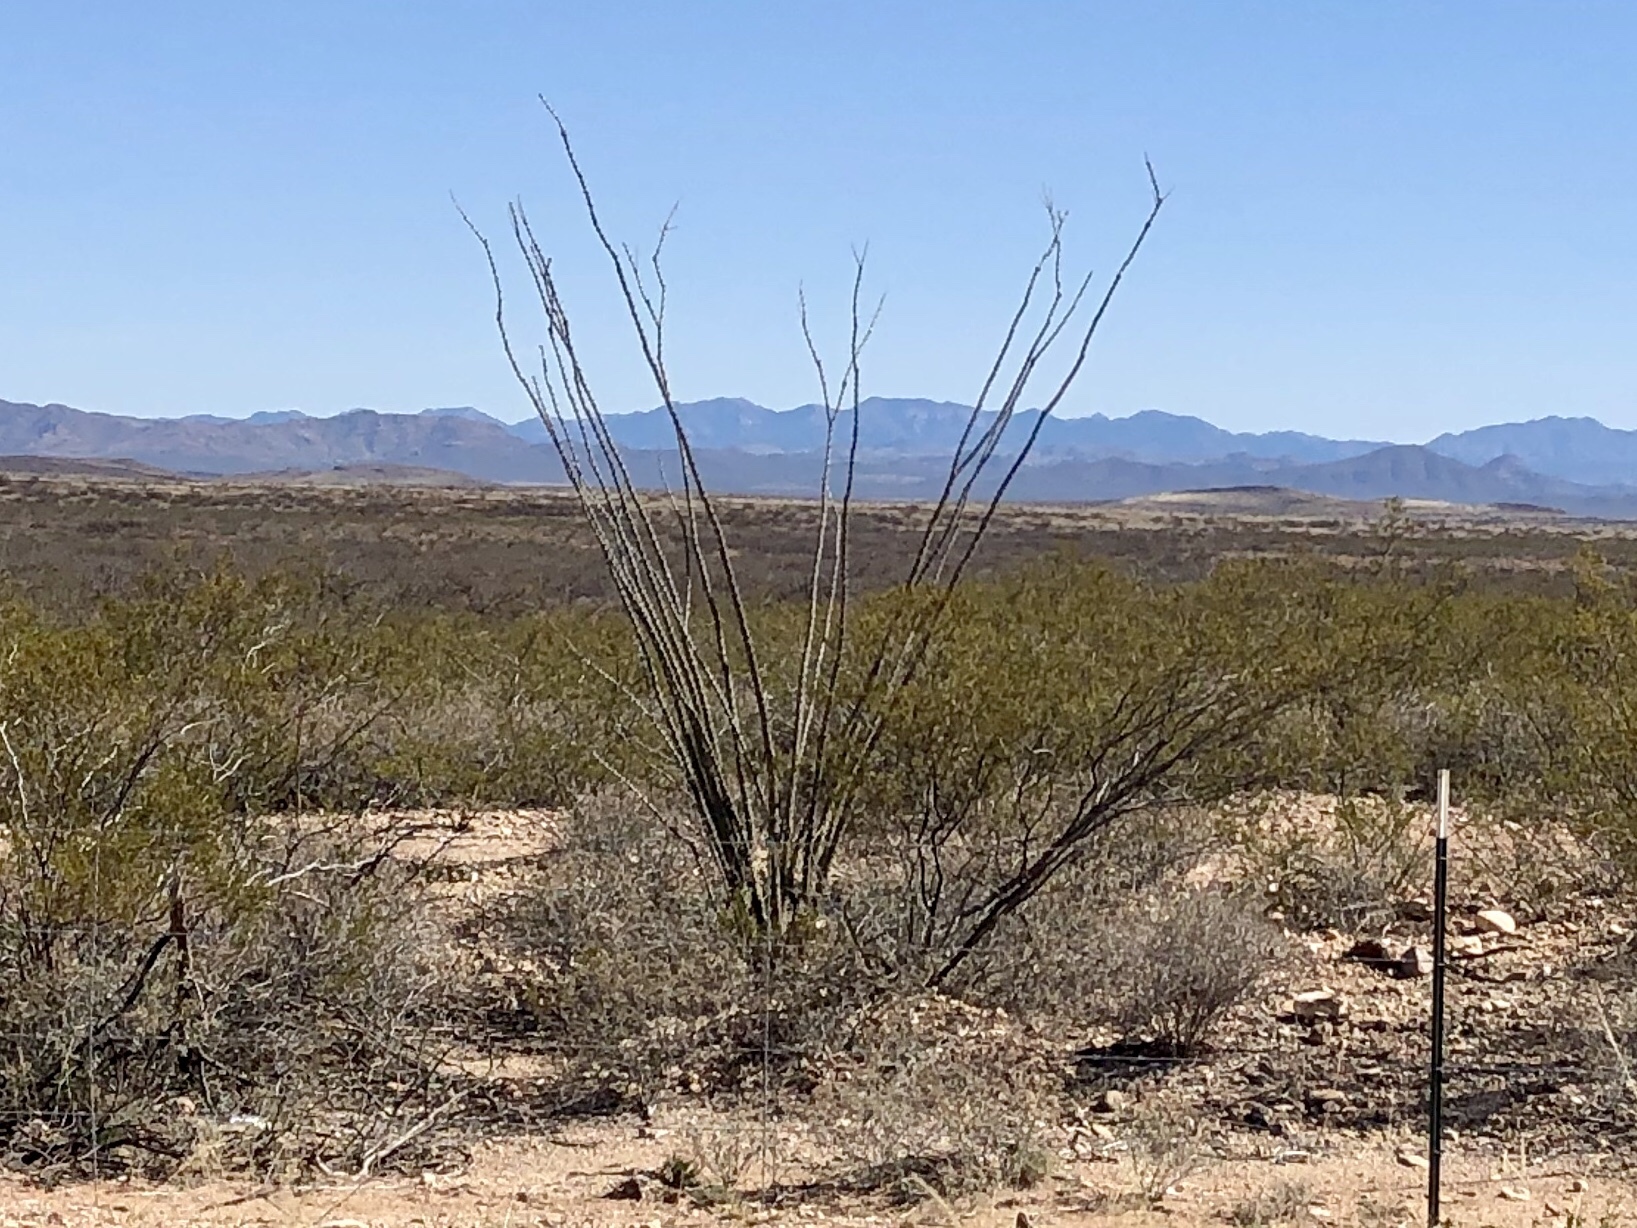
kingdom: Plantae
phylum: Tracheophyta
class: Magnoliopsida
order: Ericales
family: Fouquieriaceae
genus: Fouquieria
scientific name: Fouquieria splendens
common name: Vine-cactus
